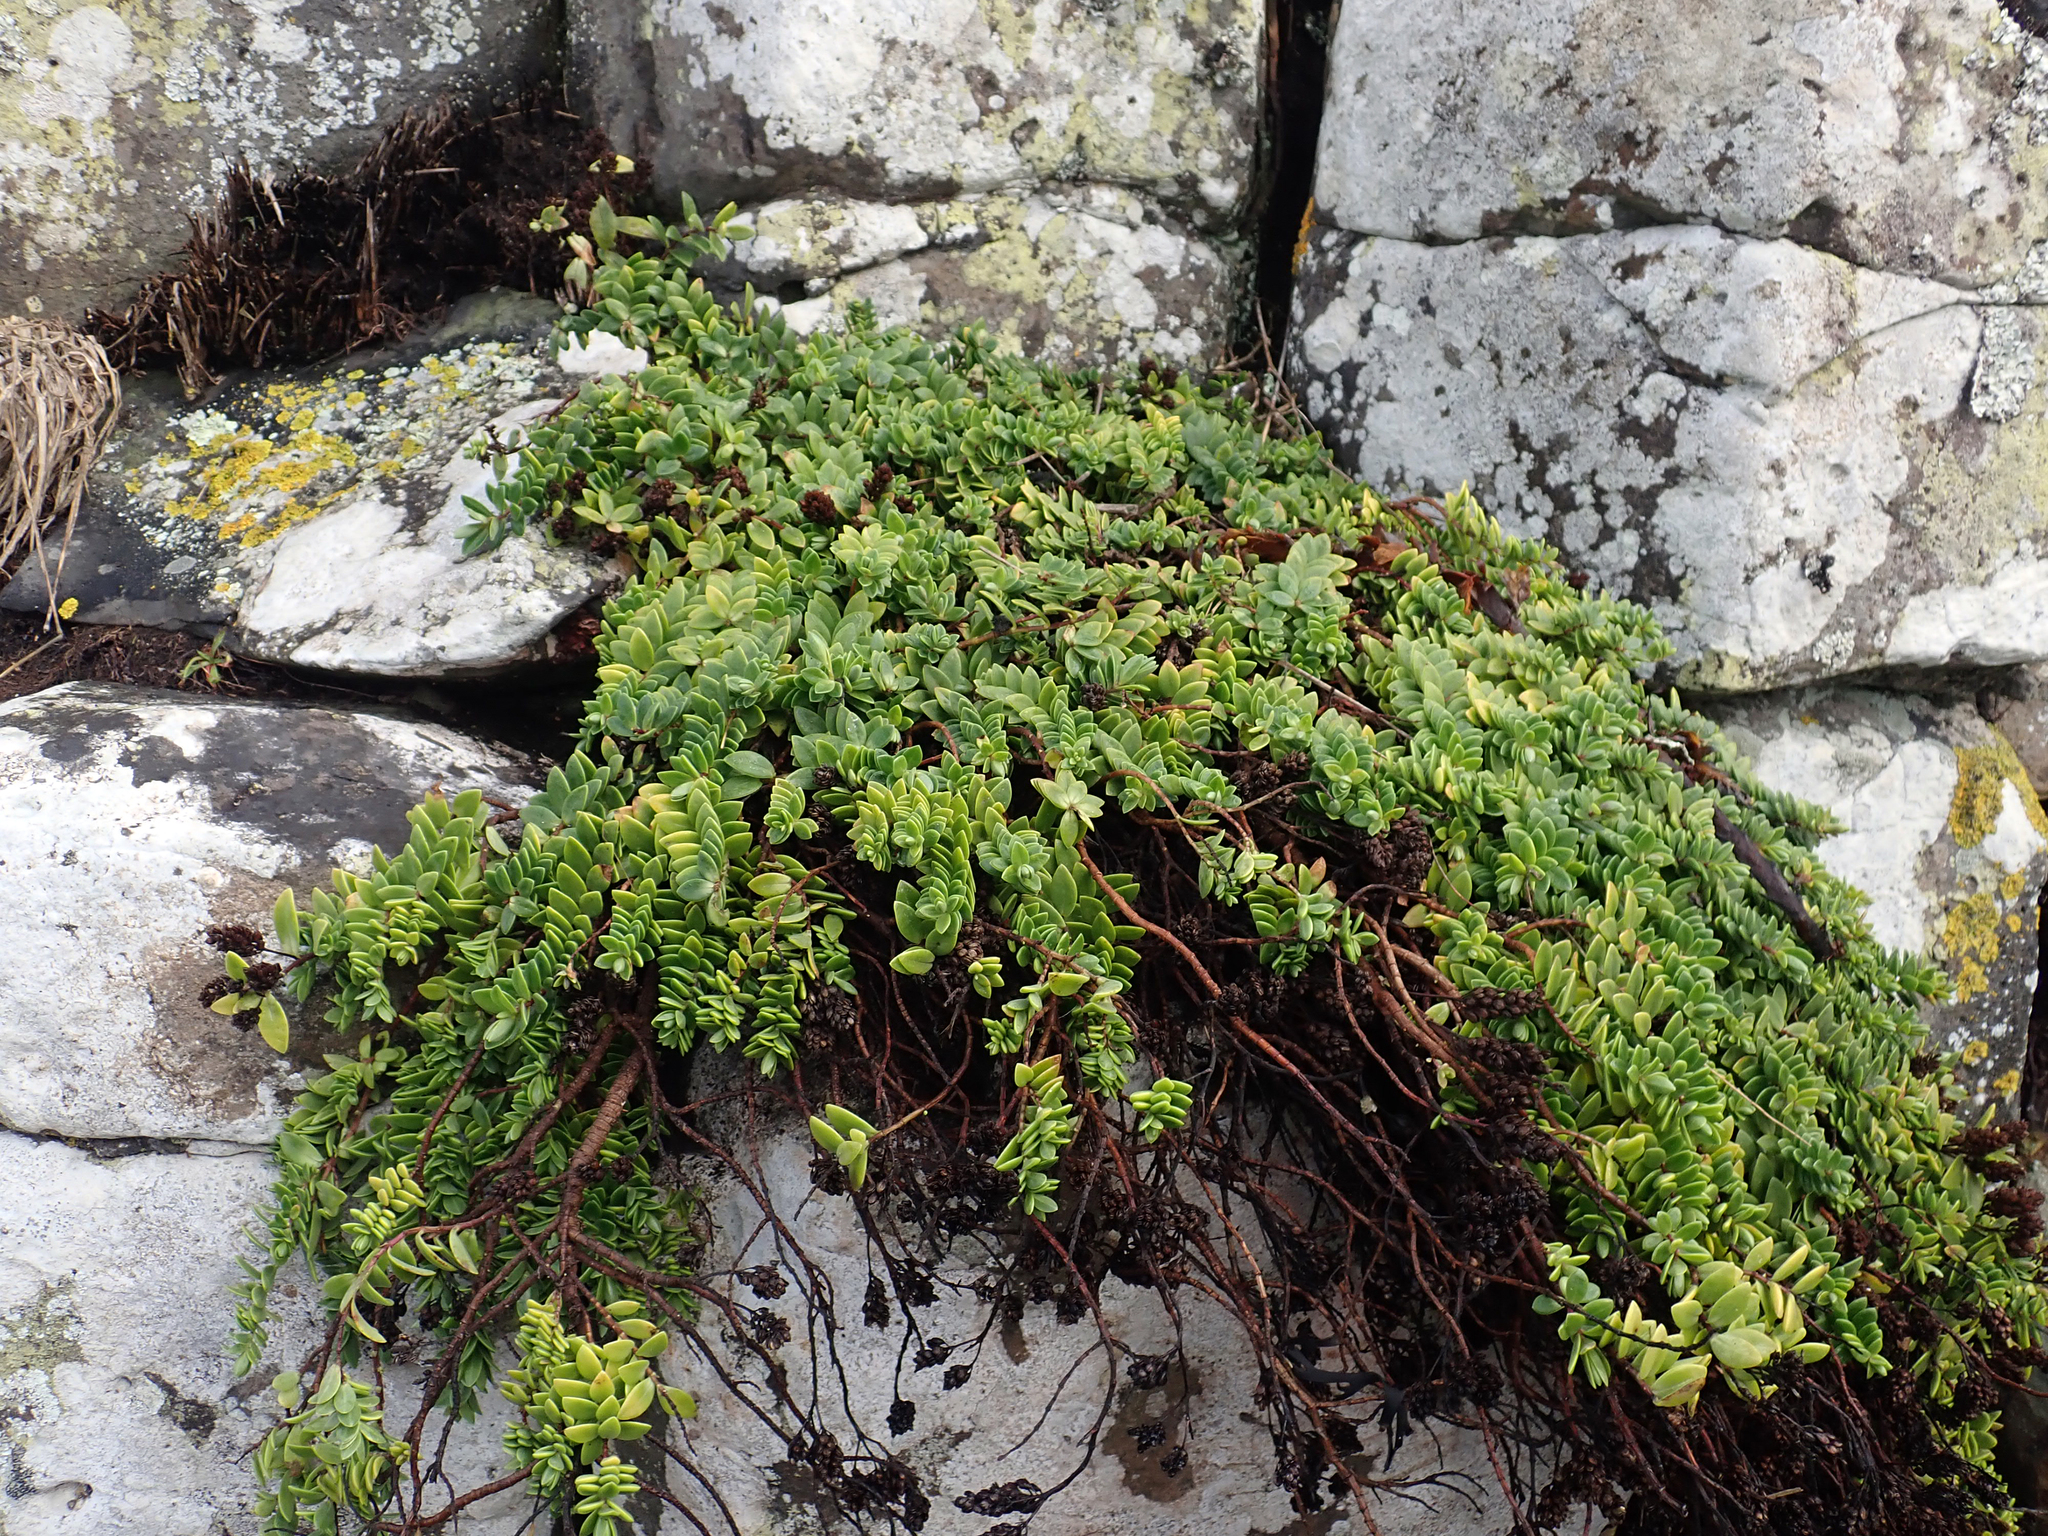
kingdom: Plantae
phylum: Tracheophyta
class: Magnoliopsida
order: Lamiales
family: Plantaginaceae
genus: Veronica
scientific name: Veronica chathamica
